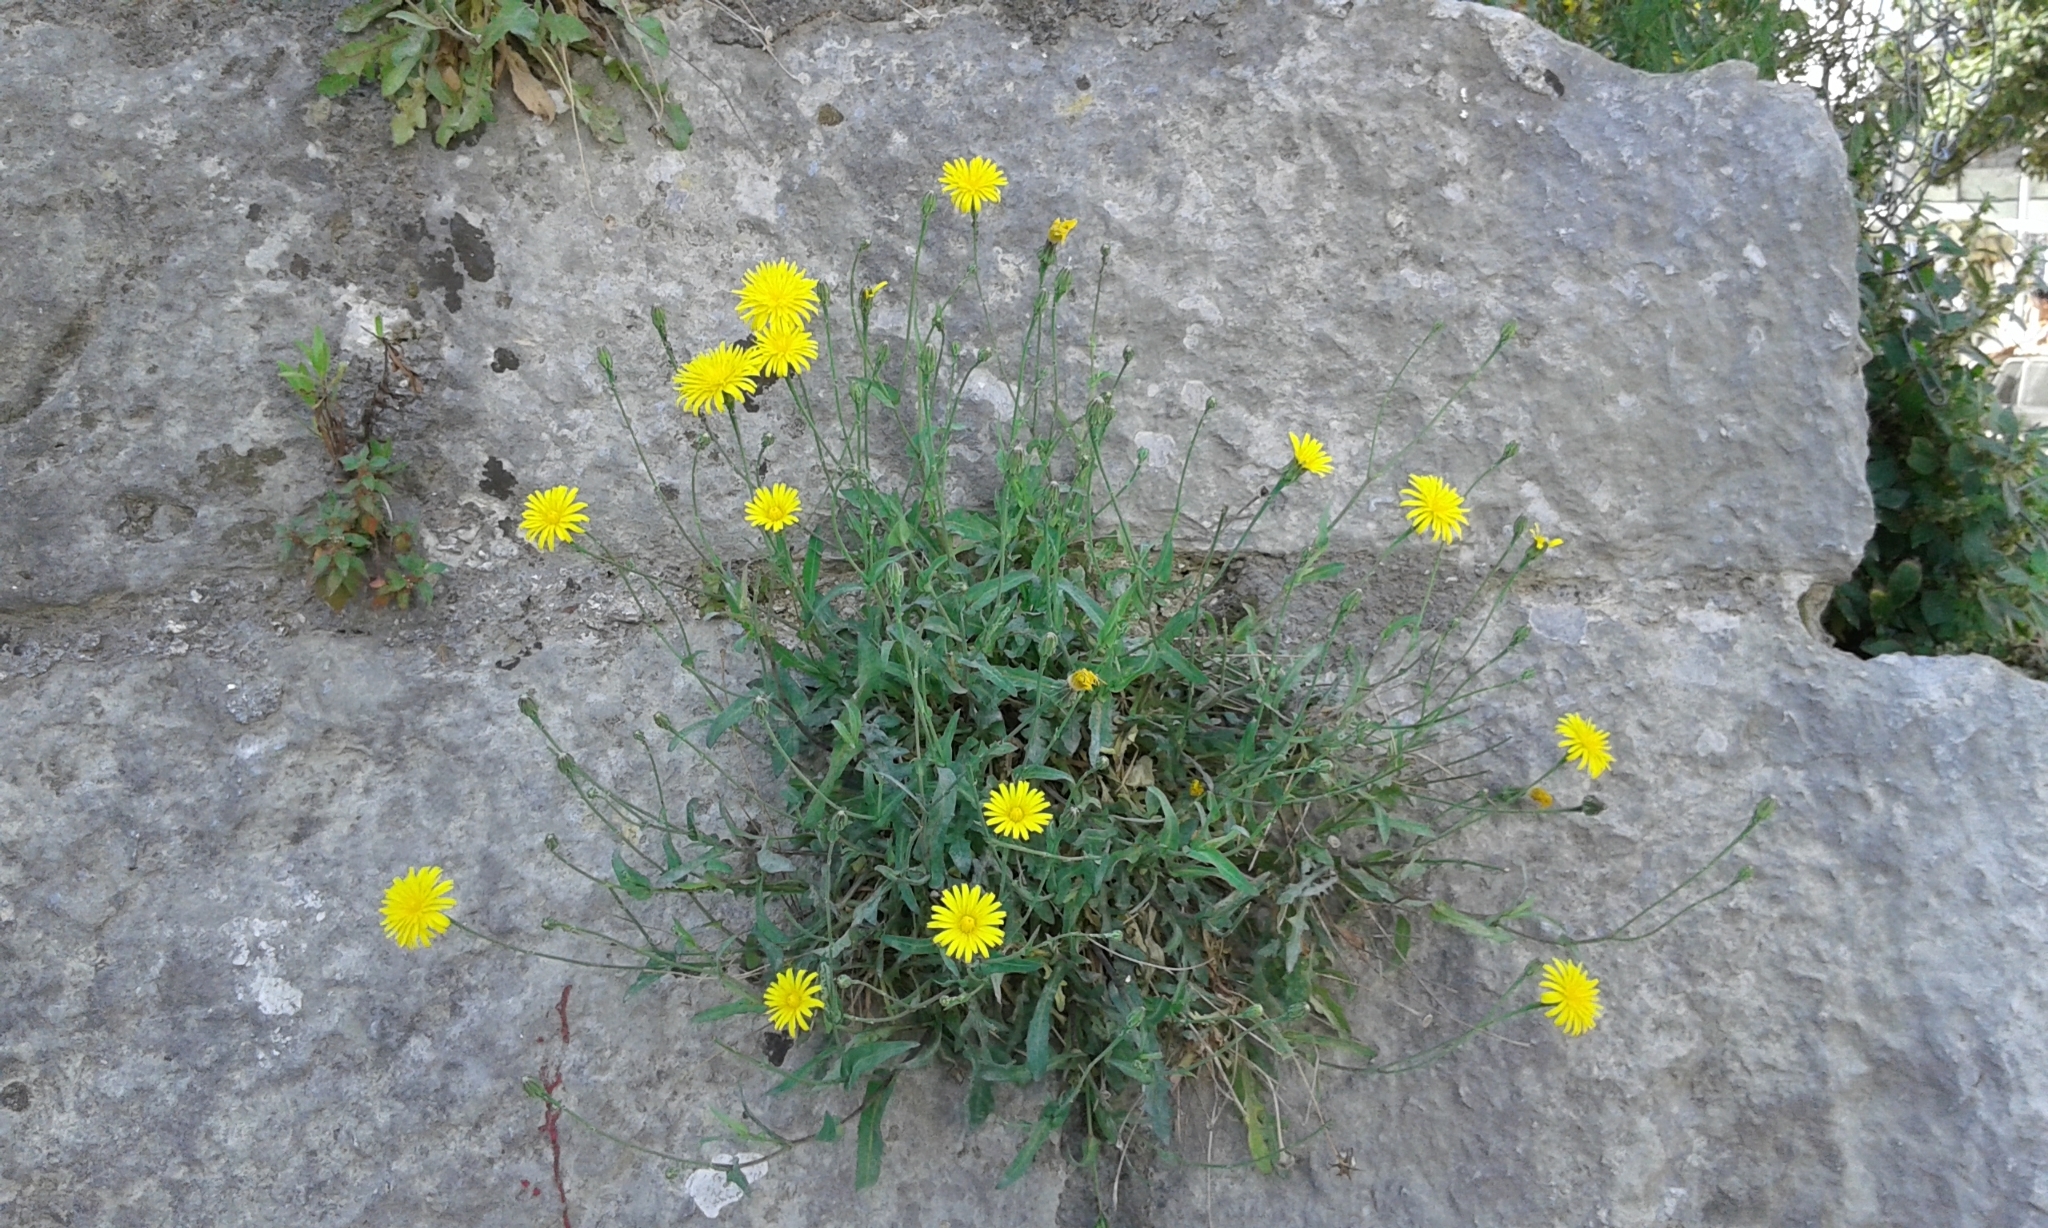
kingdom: Plantae
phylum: Tracheophyta
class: Magnoliopsida
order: Asterales
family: Asteraceae
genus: Reichardia
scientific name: Reichardia picroides
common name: Common brighteyes
